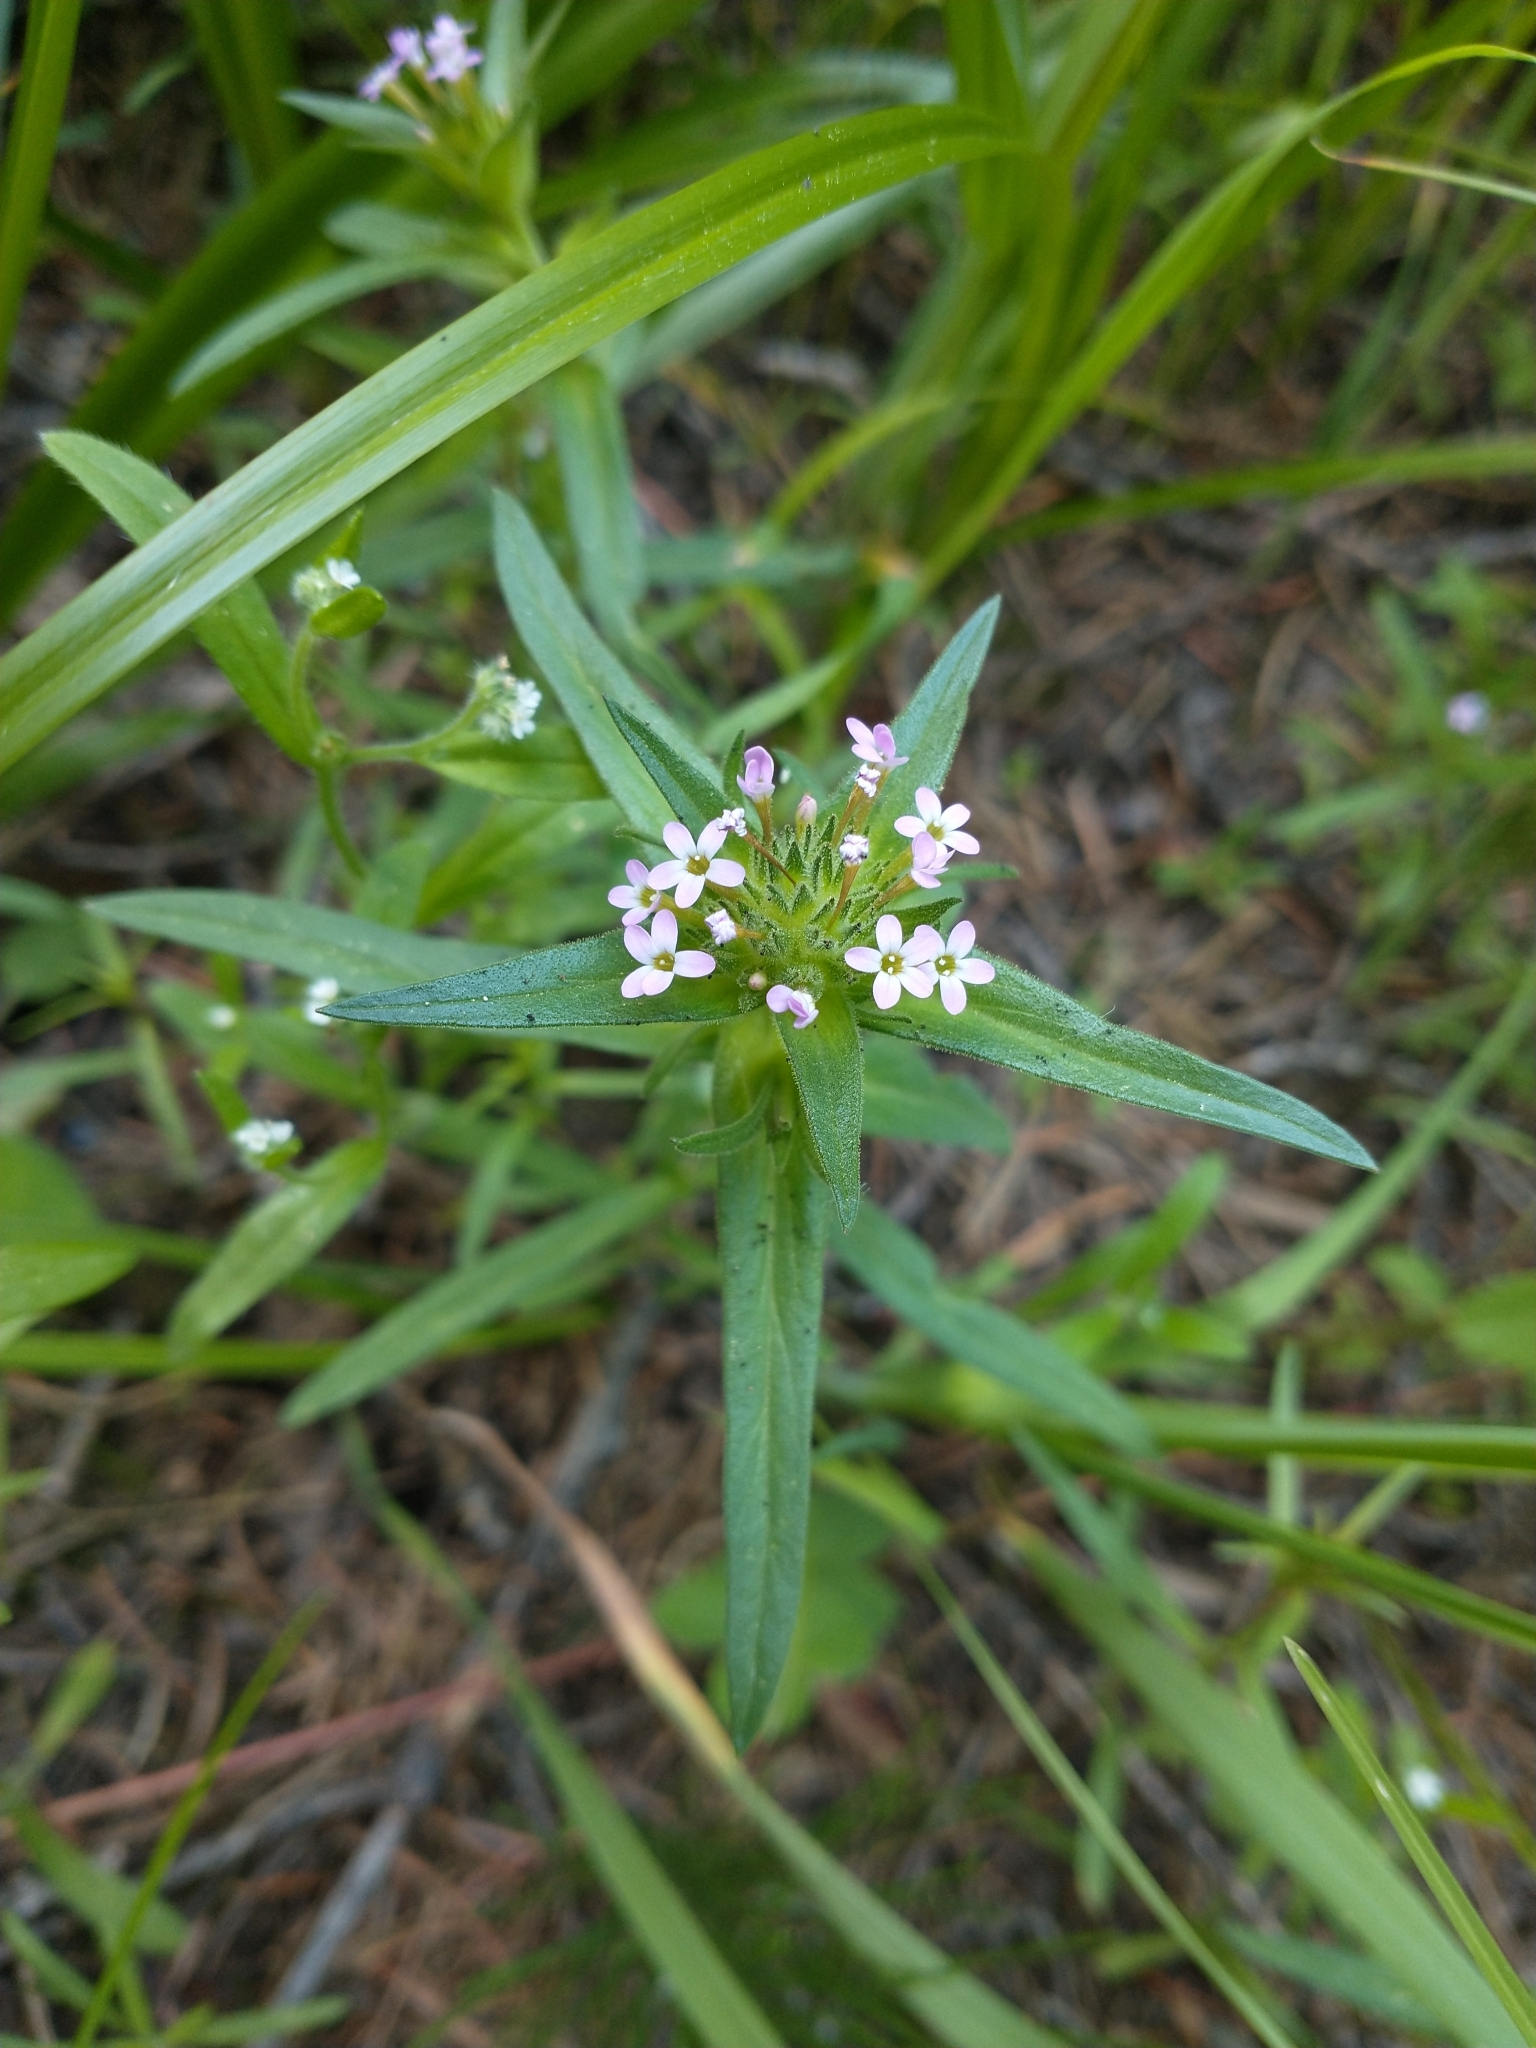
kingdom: Plantae
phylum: Tracheophyta
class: Magnoliopsida
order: Ericales
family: Polemoniaceae
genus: Collomia
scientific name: Collomia linearis
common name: Tiny trumpet
